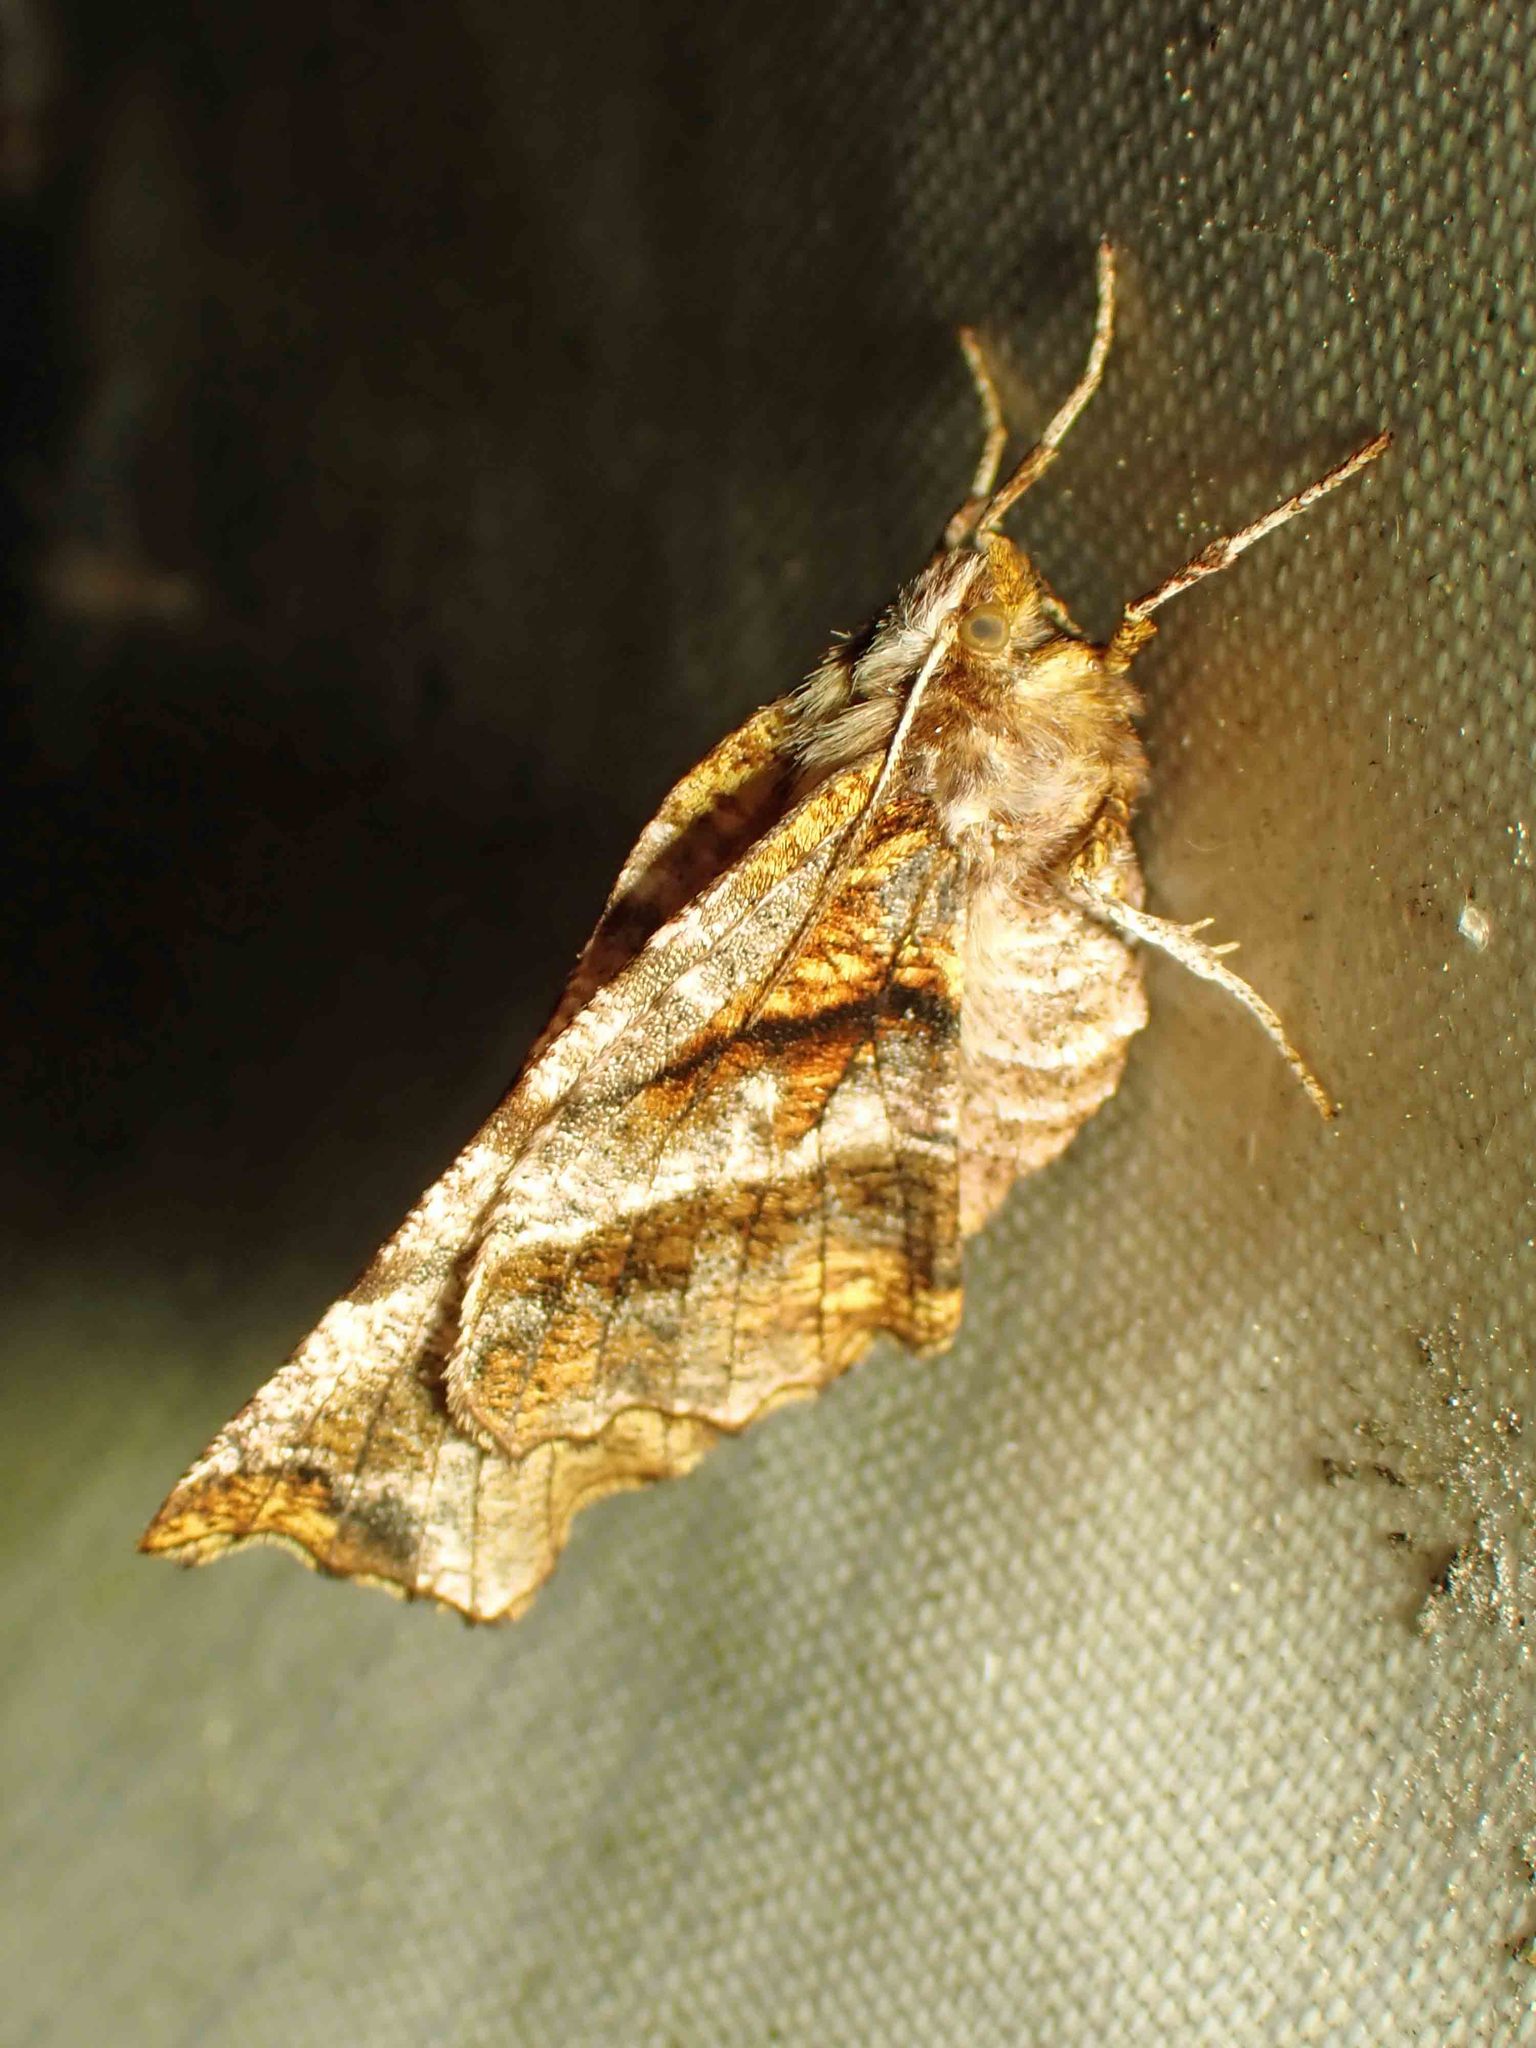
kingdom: Animalia
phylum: Arthropoda
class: Insecta
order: Lepidoptera
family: Geometridae
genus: Selenia
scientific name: Selenia alciphearia
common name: Brown-tipped thorn
